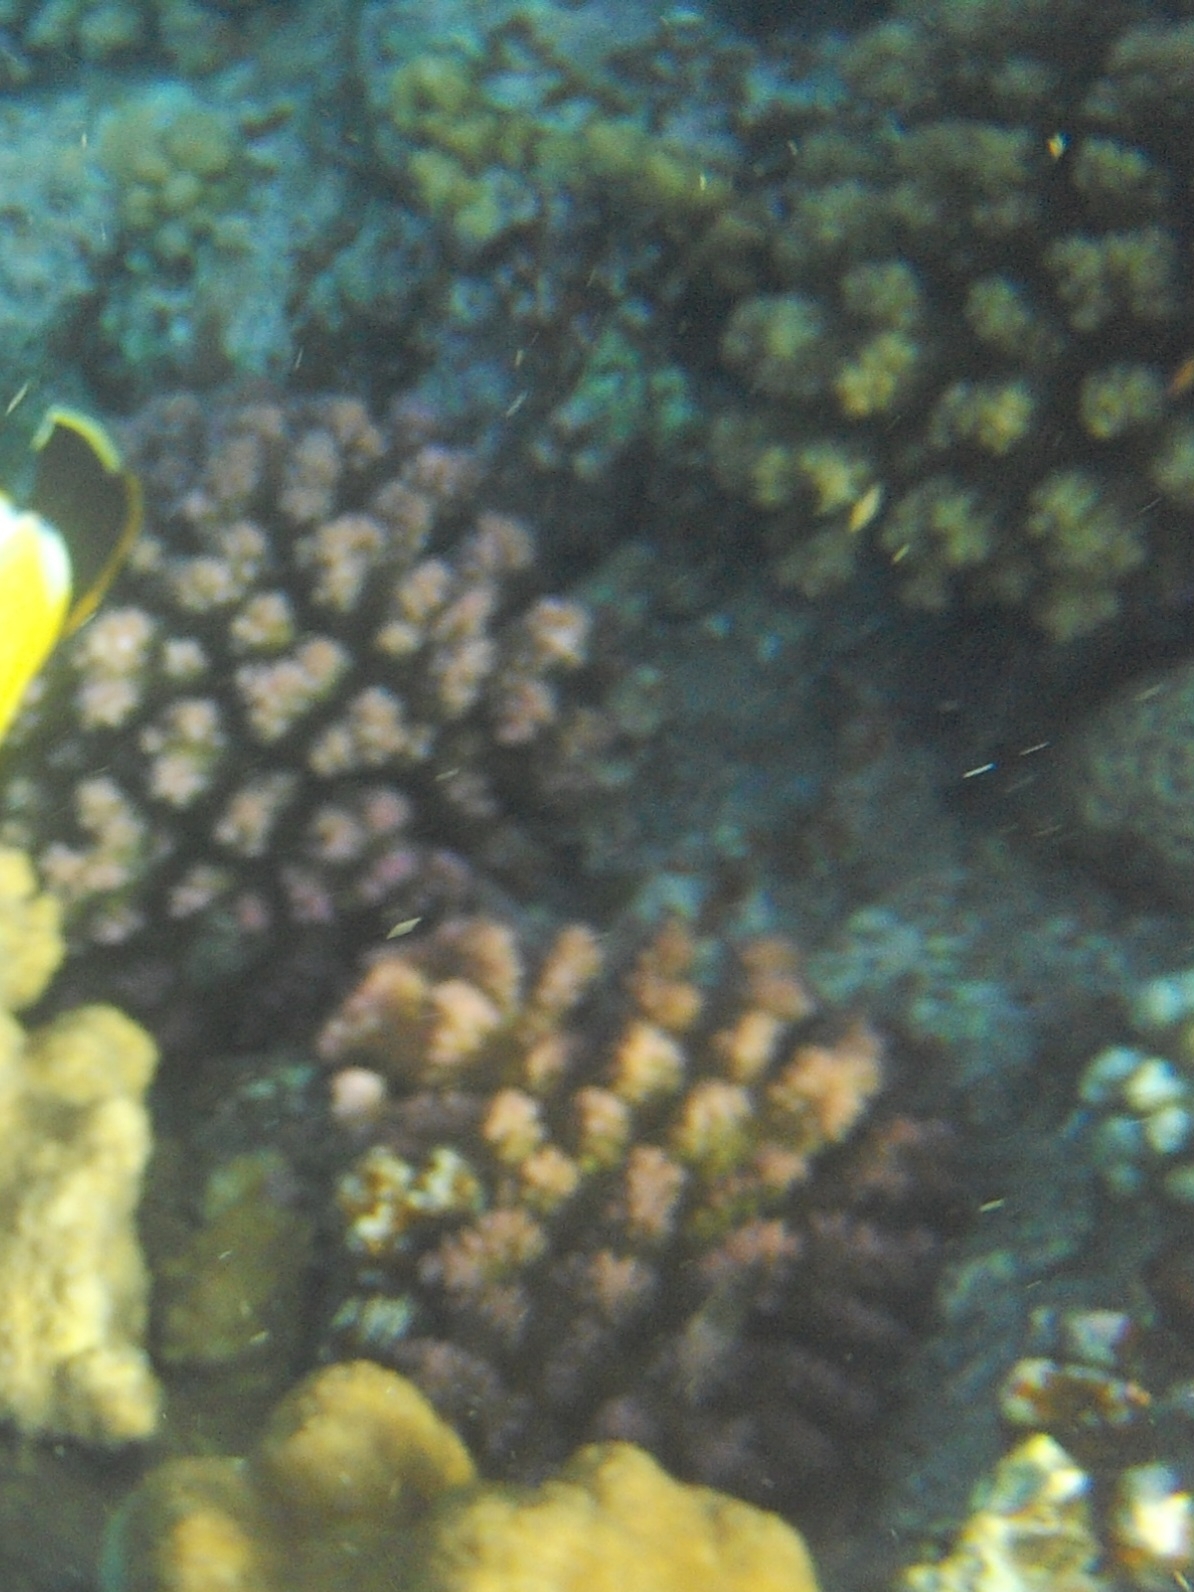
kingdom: Animalia
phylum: Cnidaria
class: Anthozoa
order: Scleractinia
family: Pocilloporidae
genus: Pocillopora
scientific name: Pocillopora verrucosa
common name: Cauliflower coral
